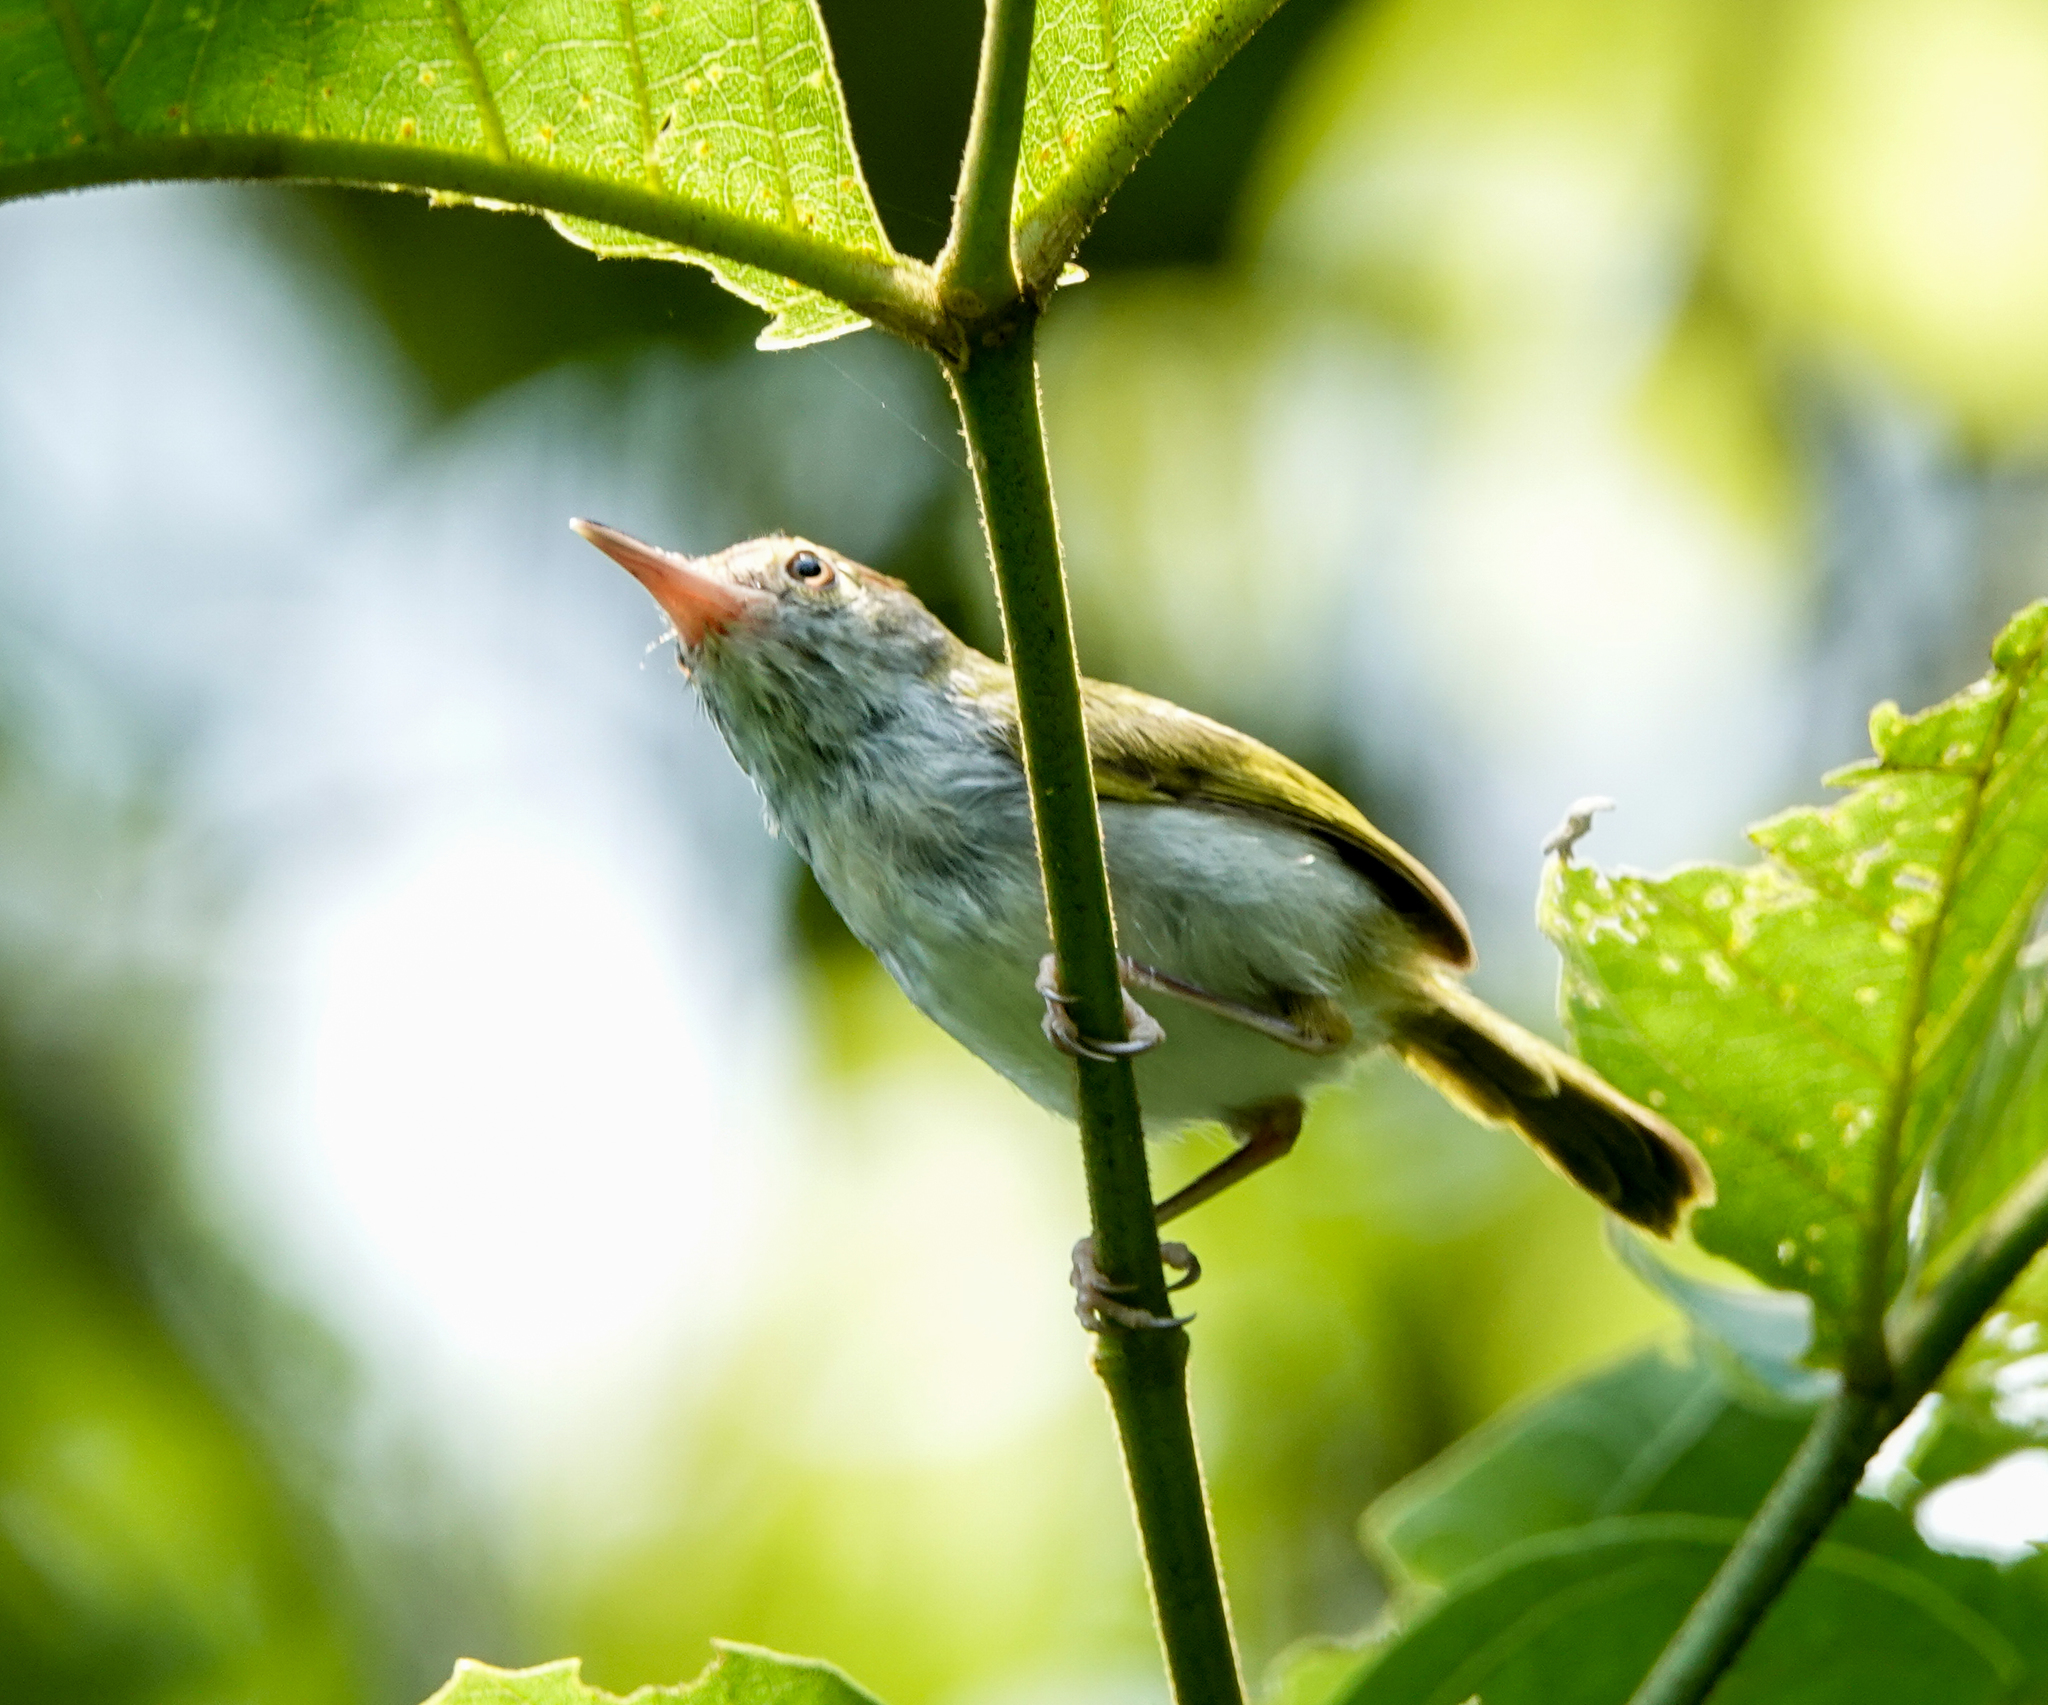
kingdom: Animalia
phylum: Chordata
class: Aves
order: Passeriformes
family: Cisticolidae
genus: Orthotomus
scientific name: Orthotomus atrogularis
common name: Dark-necked tailorbird
